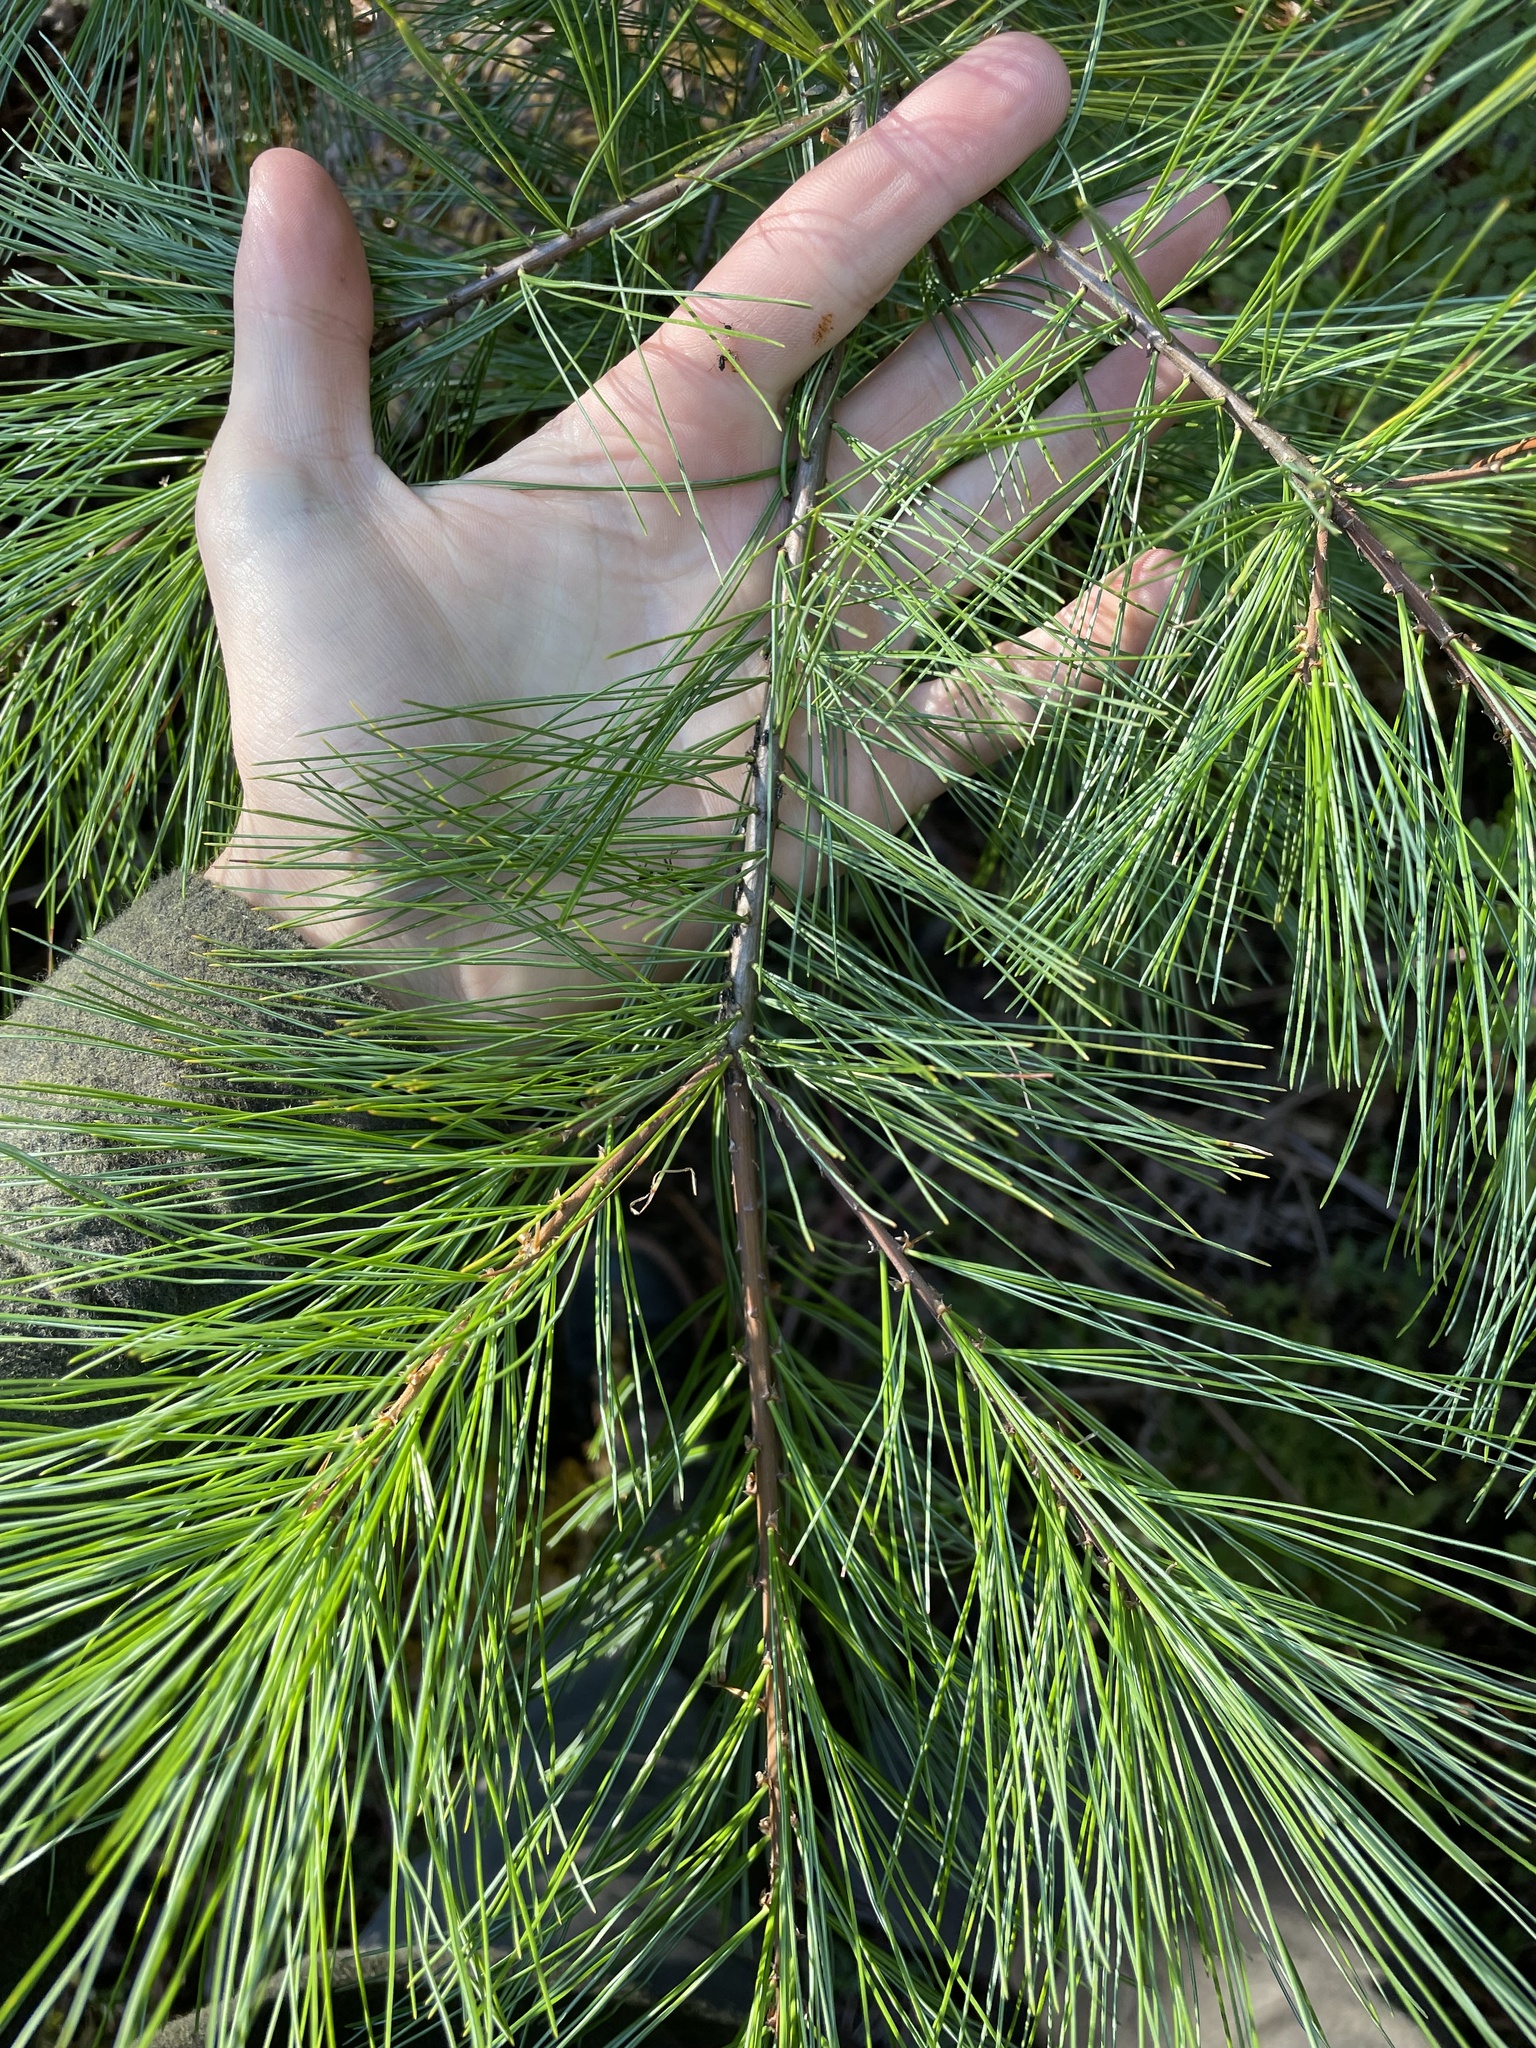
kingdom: Plantae
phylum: Tracheophyta
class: Pinopsida
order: Pinales
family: Pinaceae
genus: Pinus
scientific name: Pinus strobus
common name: Weymouth pine
